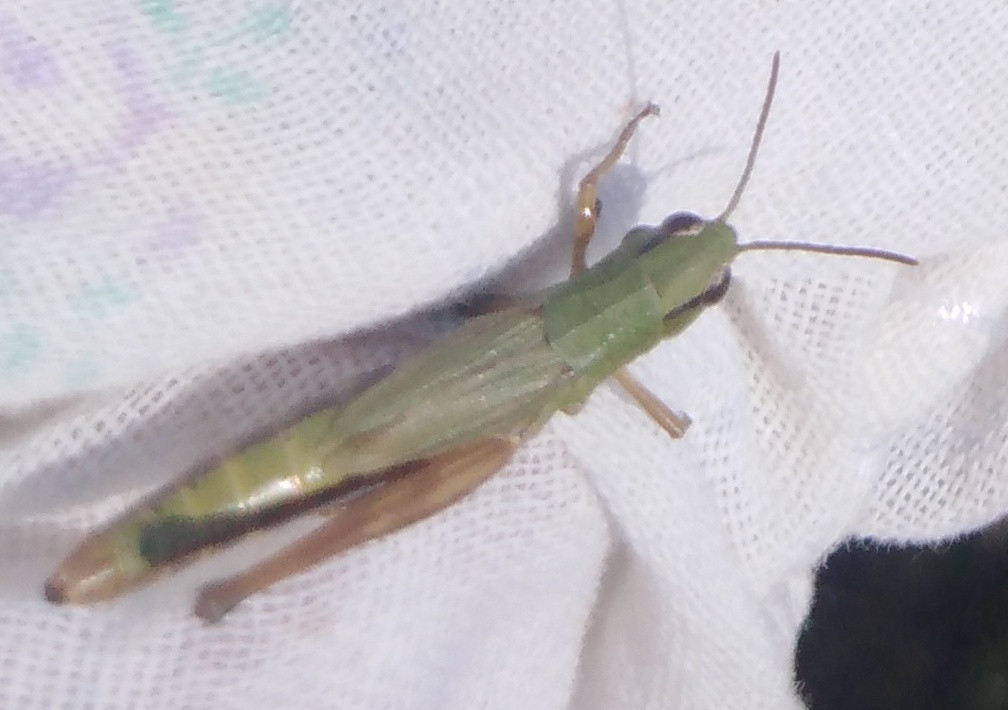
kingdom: Animalia
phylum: Arthropoda
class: Insecta
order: Orthoptera
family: Acrididae
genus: Pseudochorthippus
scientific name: Pseudochorthippus parallelus
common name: Meadow grasshopper
